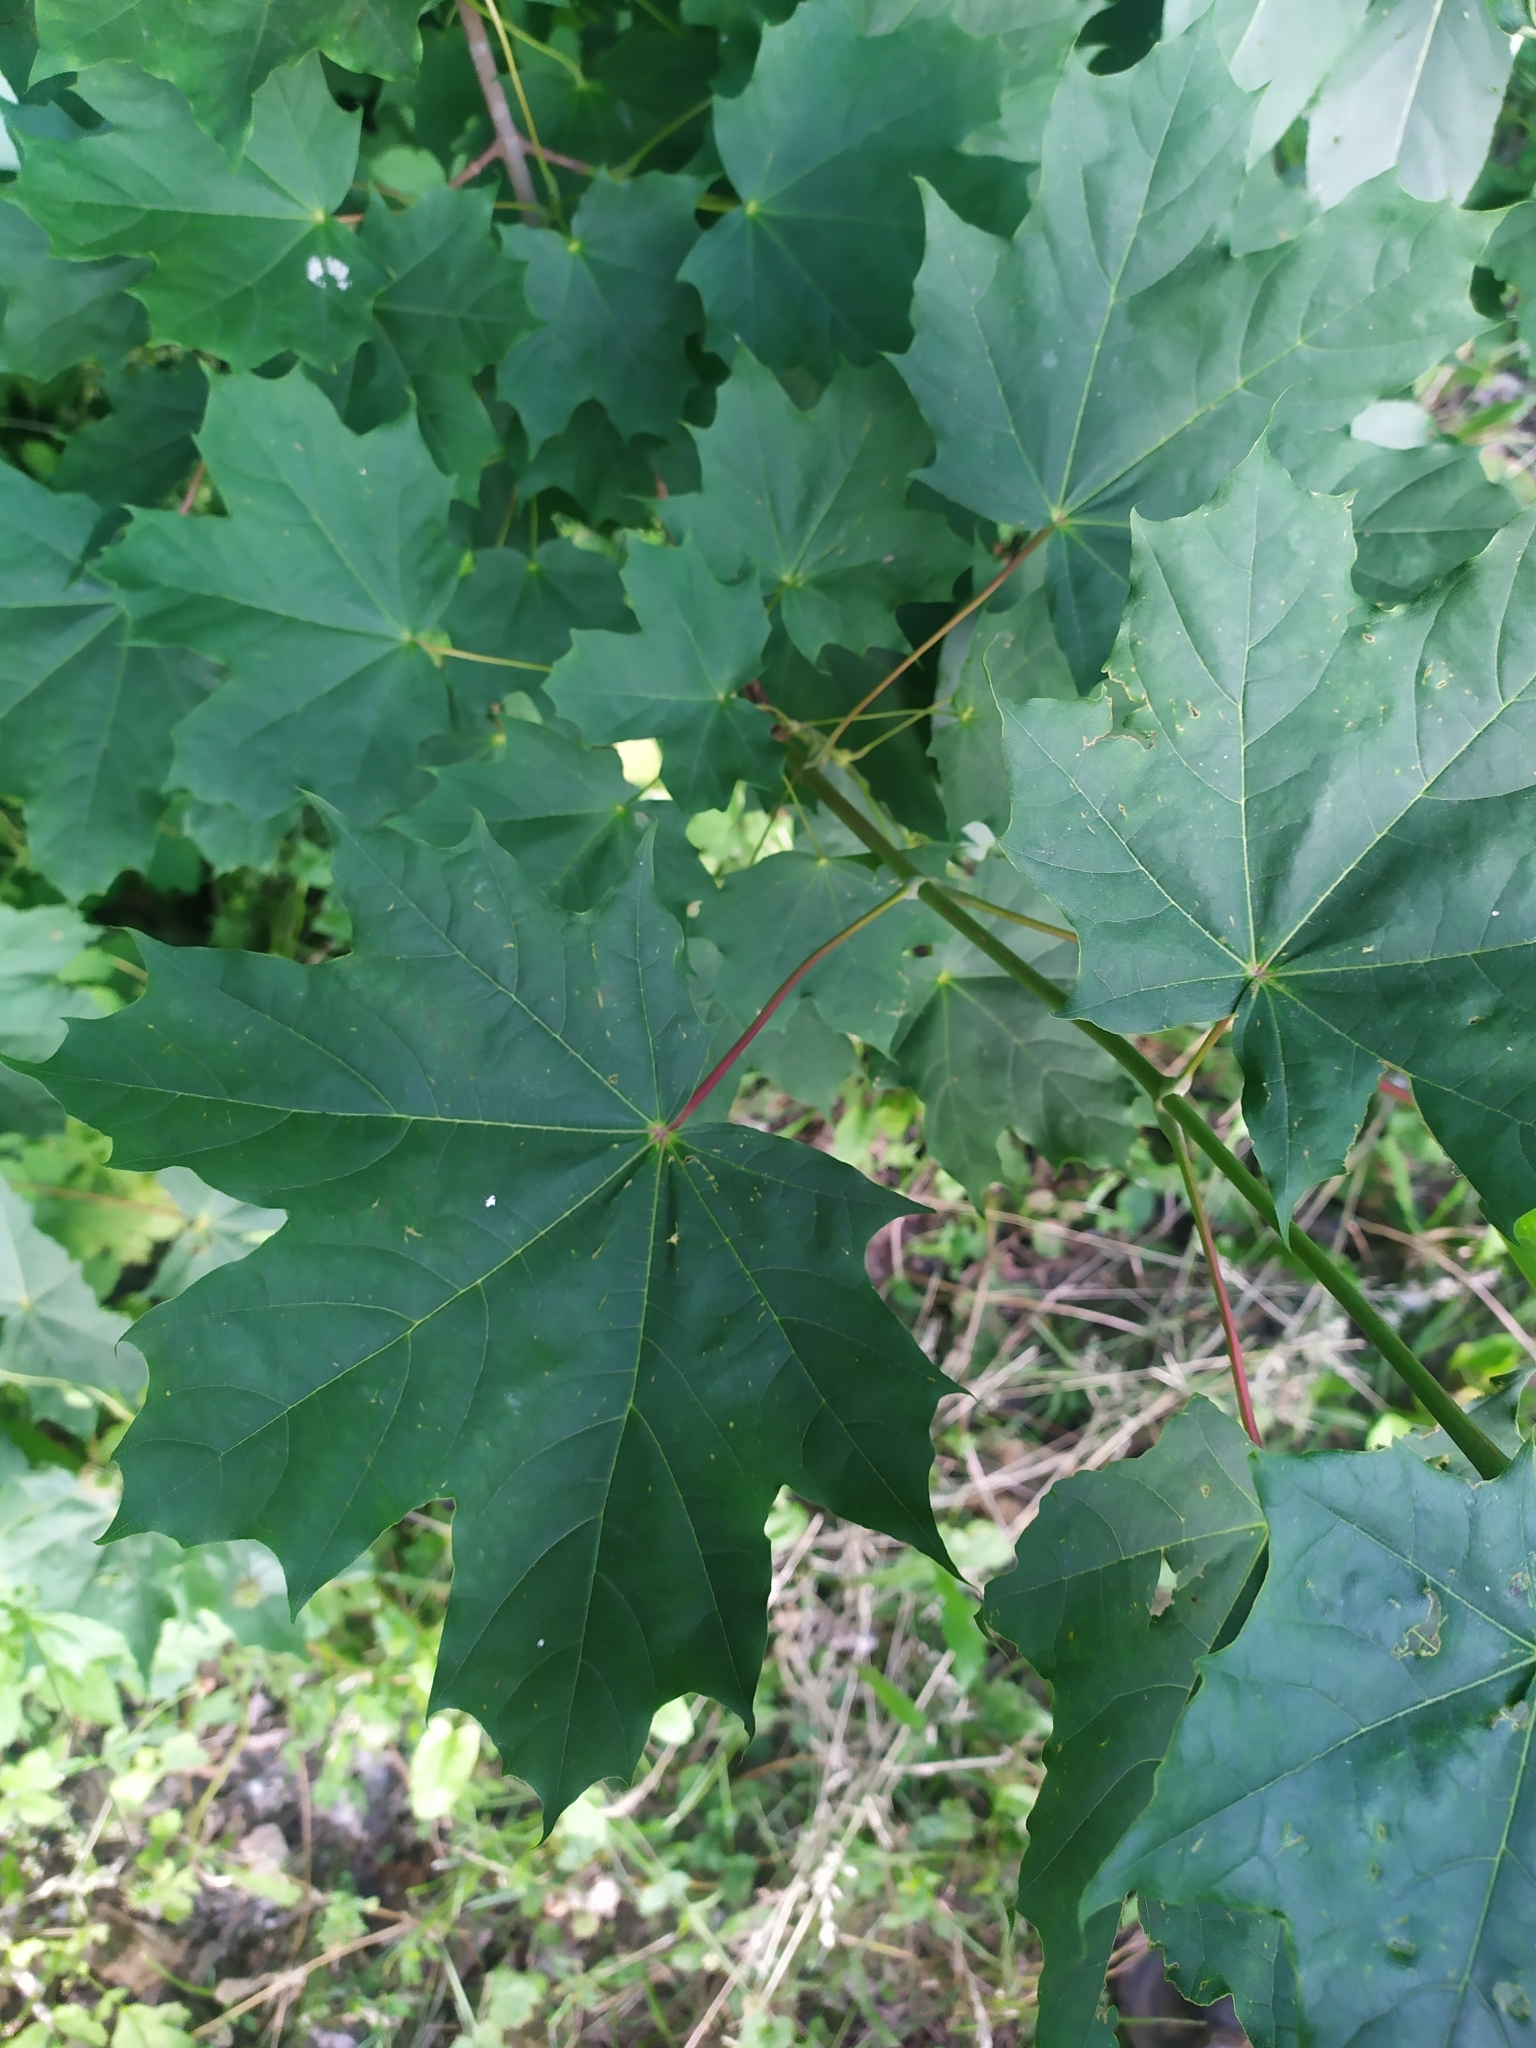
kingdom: Plantae
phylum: Tracheophyta
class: Magnoliopsida
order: Sapindales
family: Sapindaceae
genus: Acer
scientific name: Acer platanoides
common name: Norway maple
